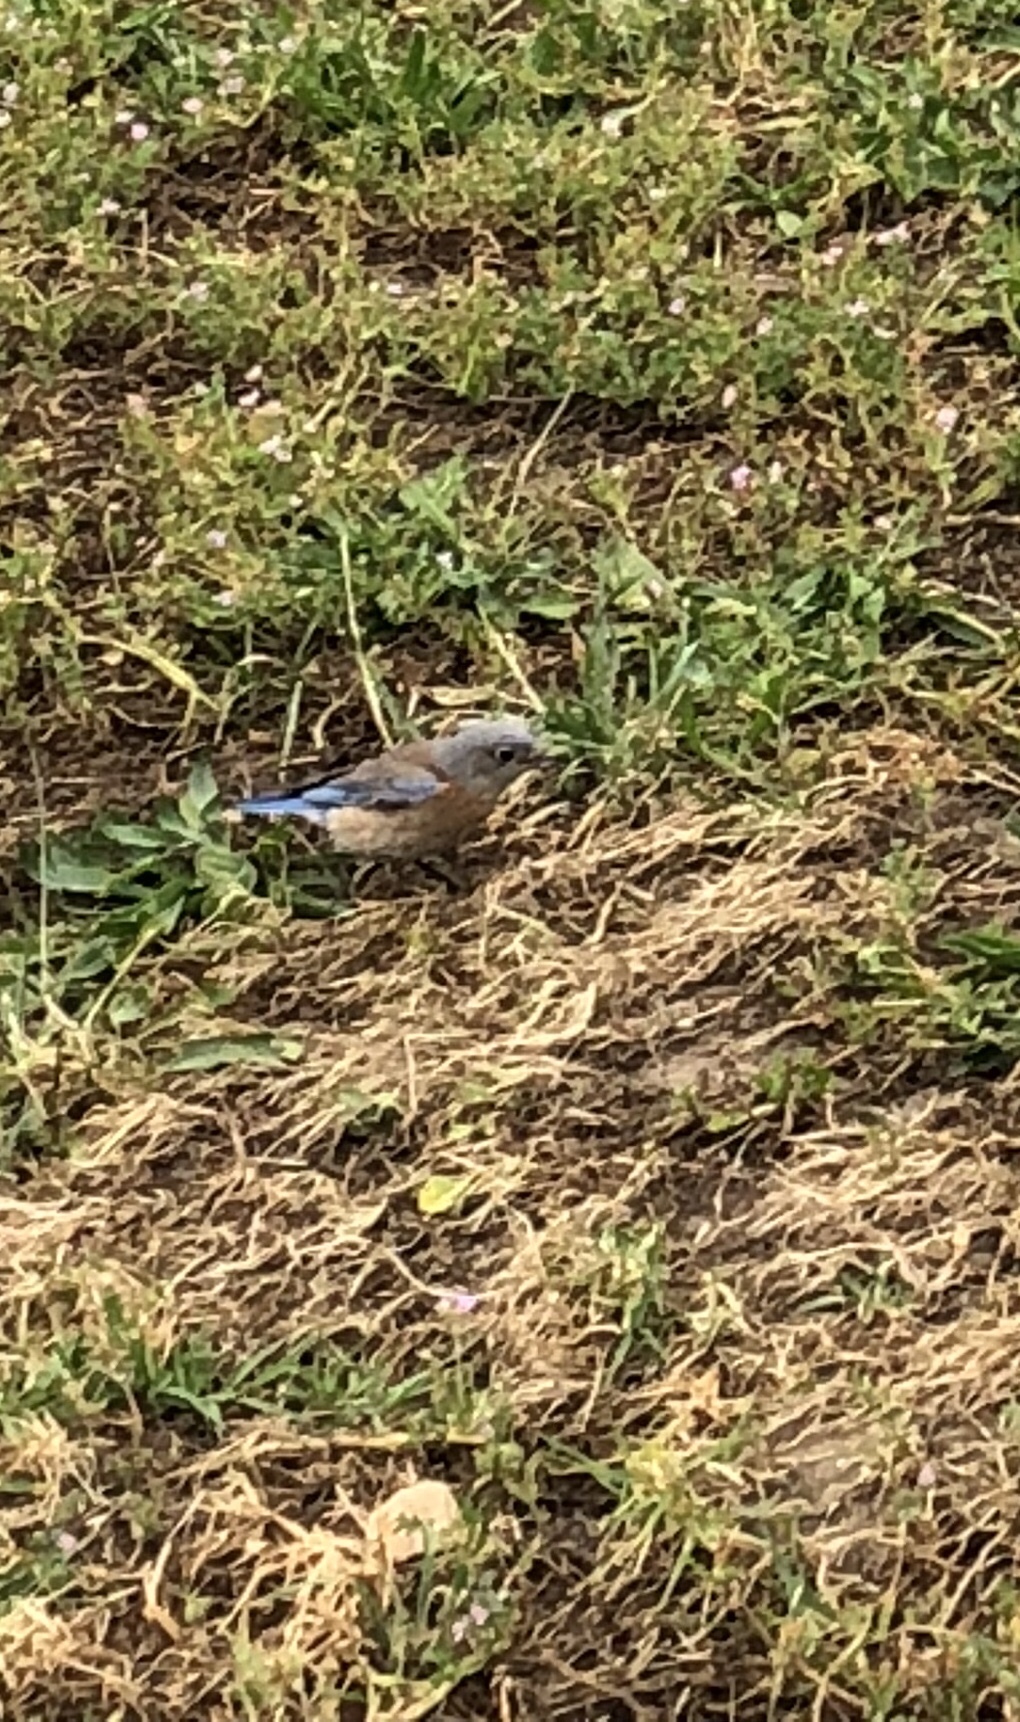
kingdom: Animalia
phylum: Chordata
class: Aves
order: Passeriformes
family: Turdidae
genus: Sialia
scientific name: Sialia mexicana
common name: Western bluebird
